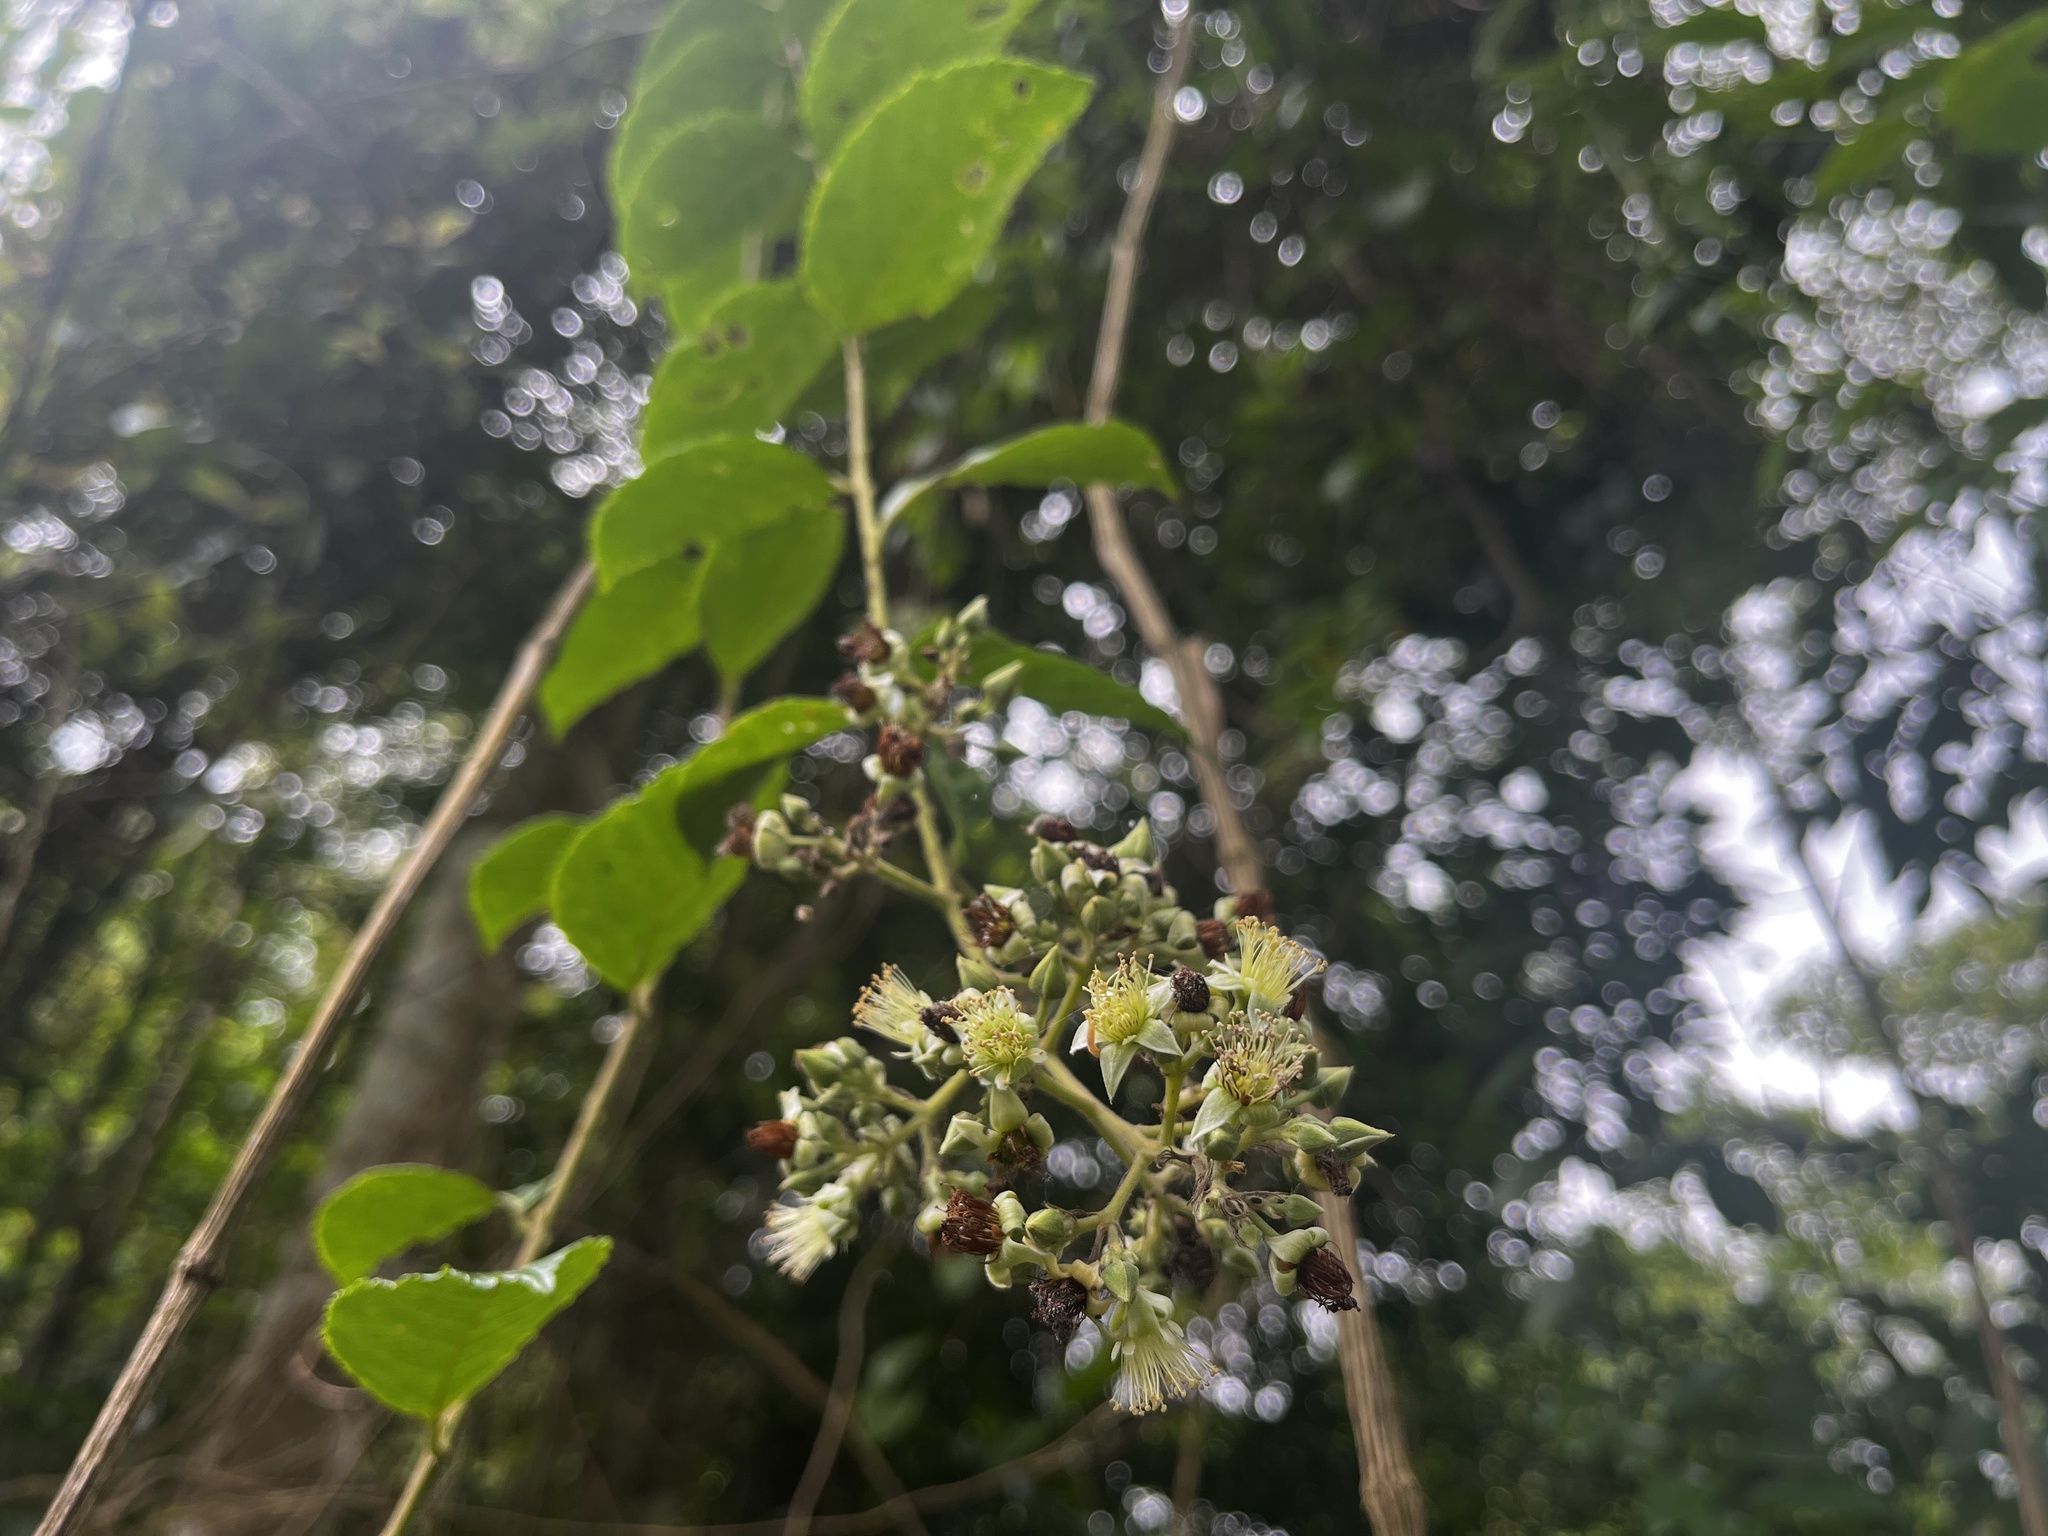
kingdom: Plantae
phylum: Tracheophyta
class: Magnoliopsida
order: Rosales
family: Rosaceae
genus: Rubus
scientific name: Rubus
